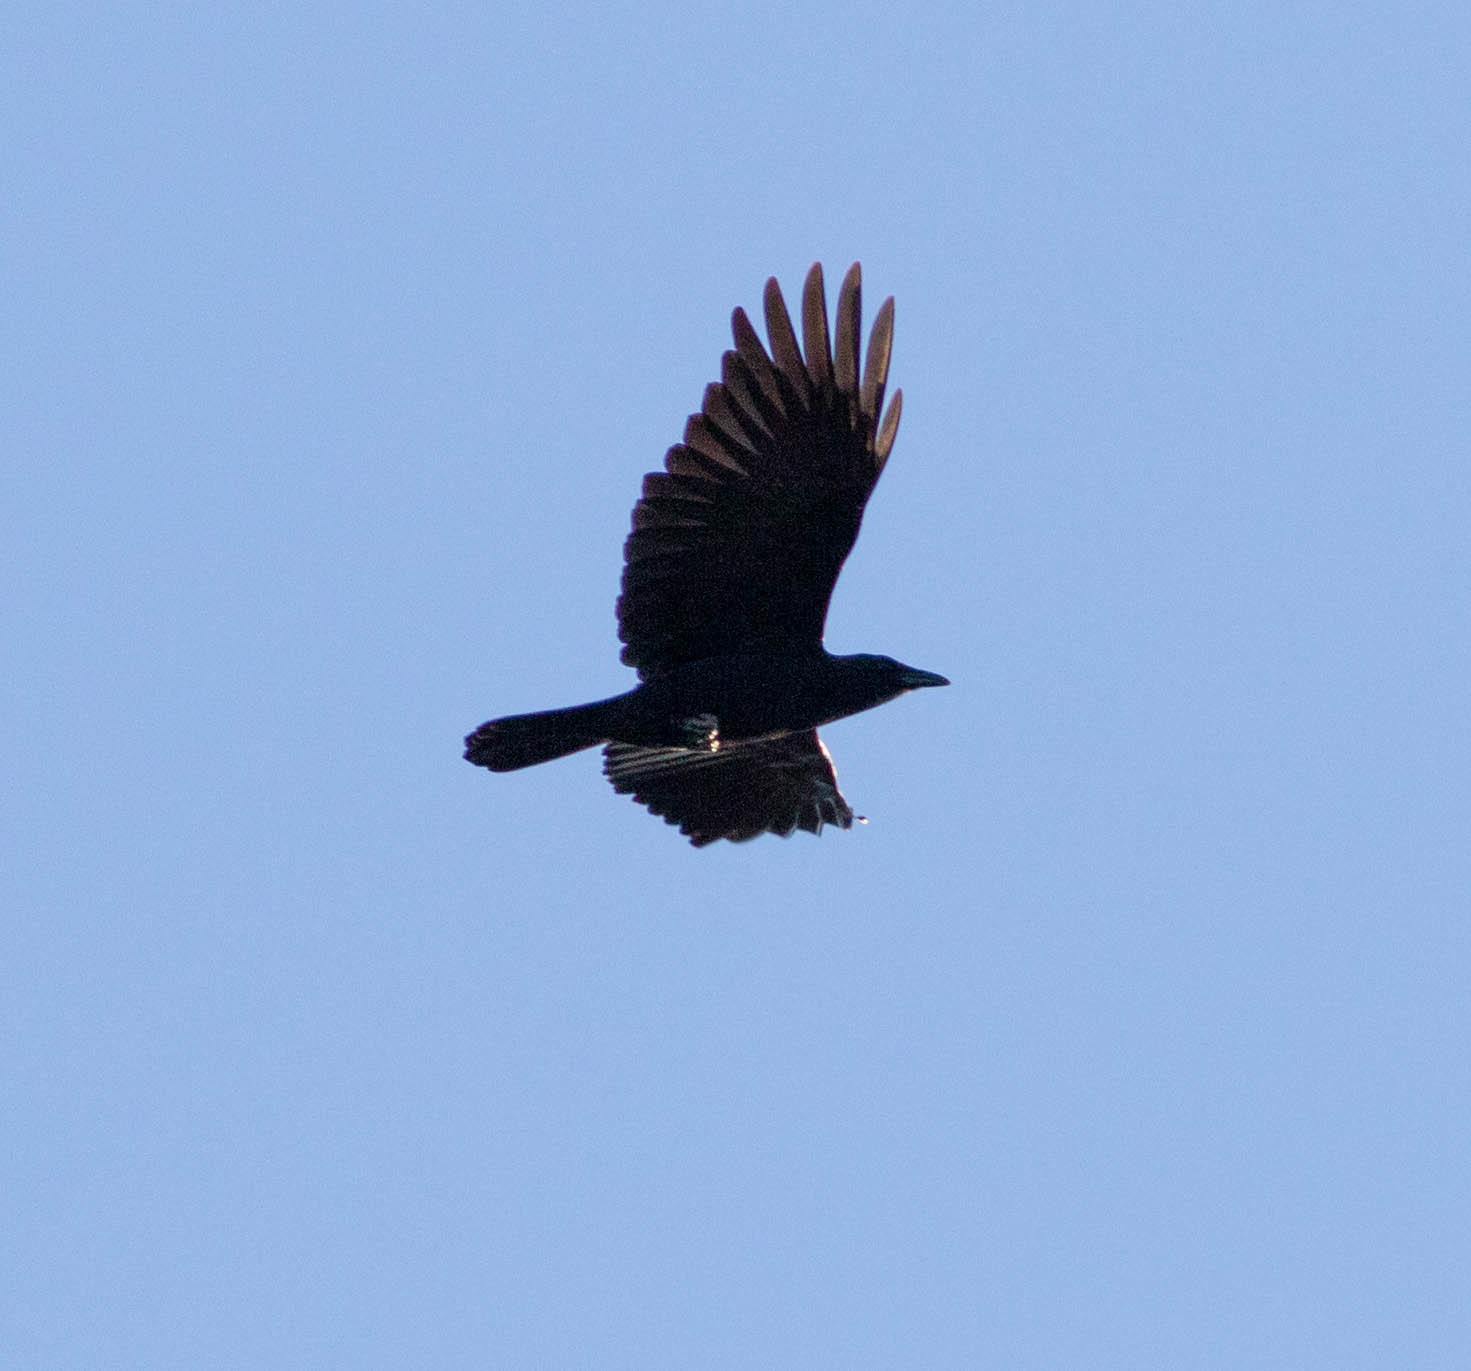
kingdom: Animalia
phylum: Chordata
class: Aves
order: Passeriformes
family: Corvidae
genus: Corvus
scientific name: Corvus brachyrhynchos
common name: American crow
